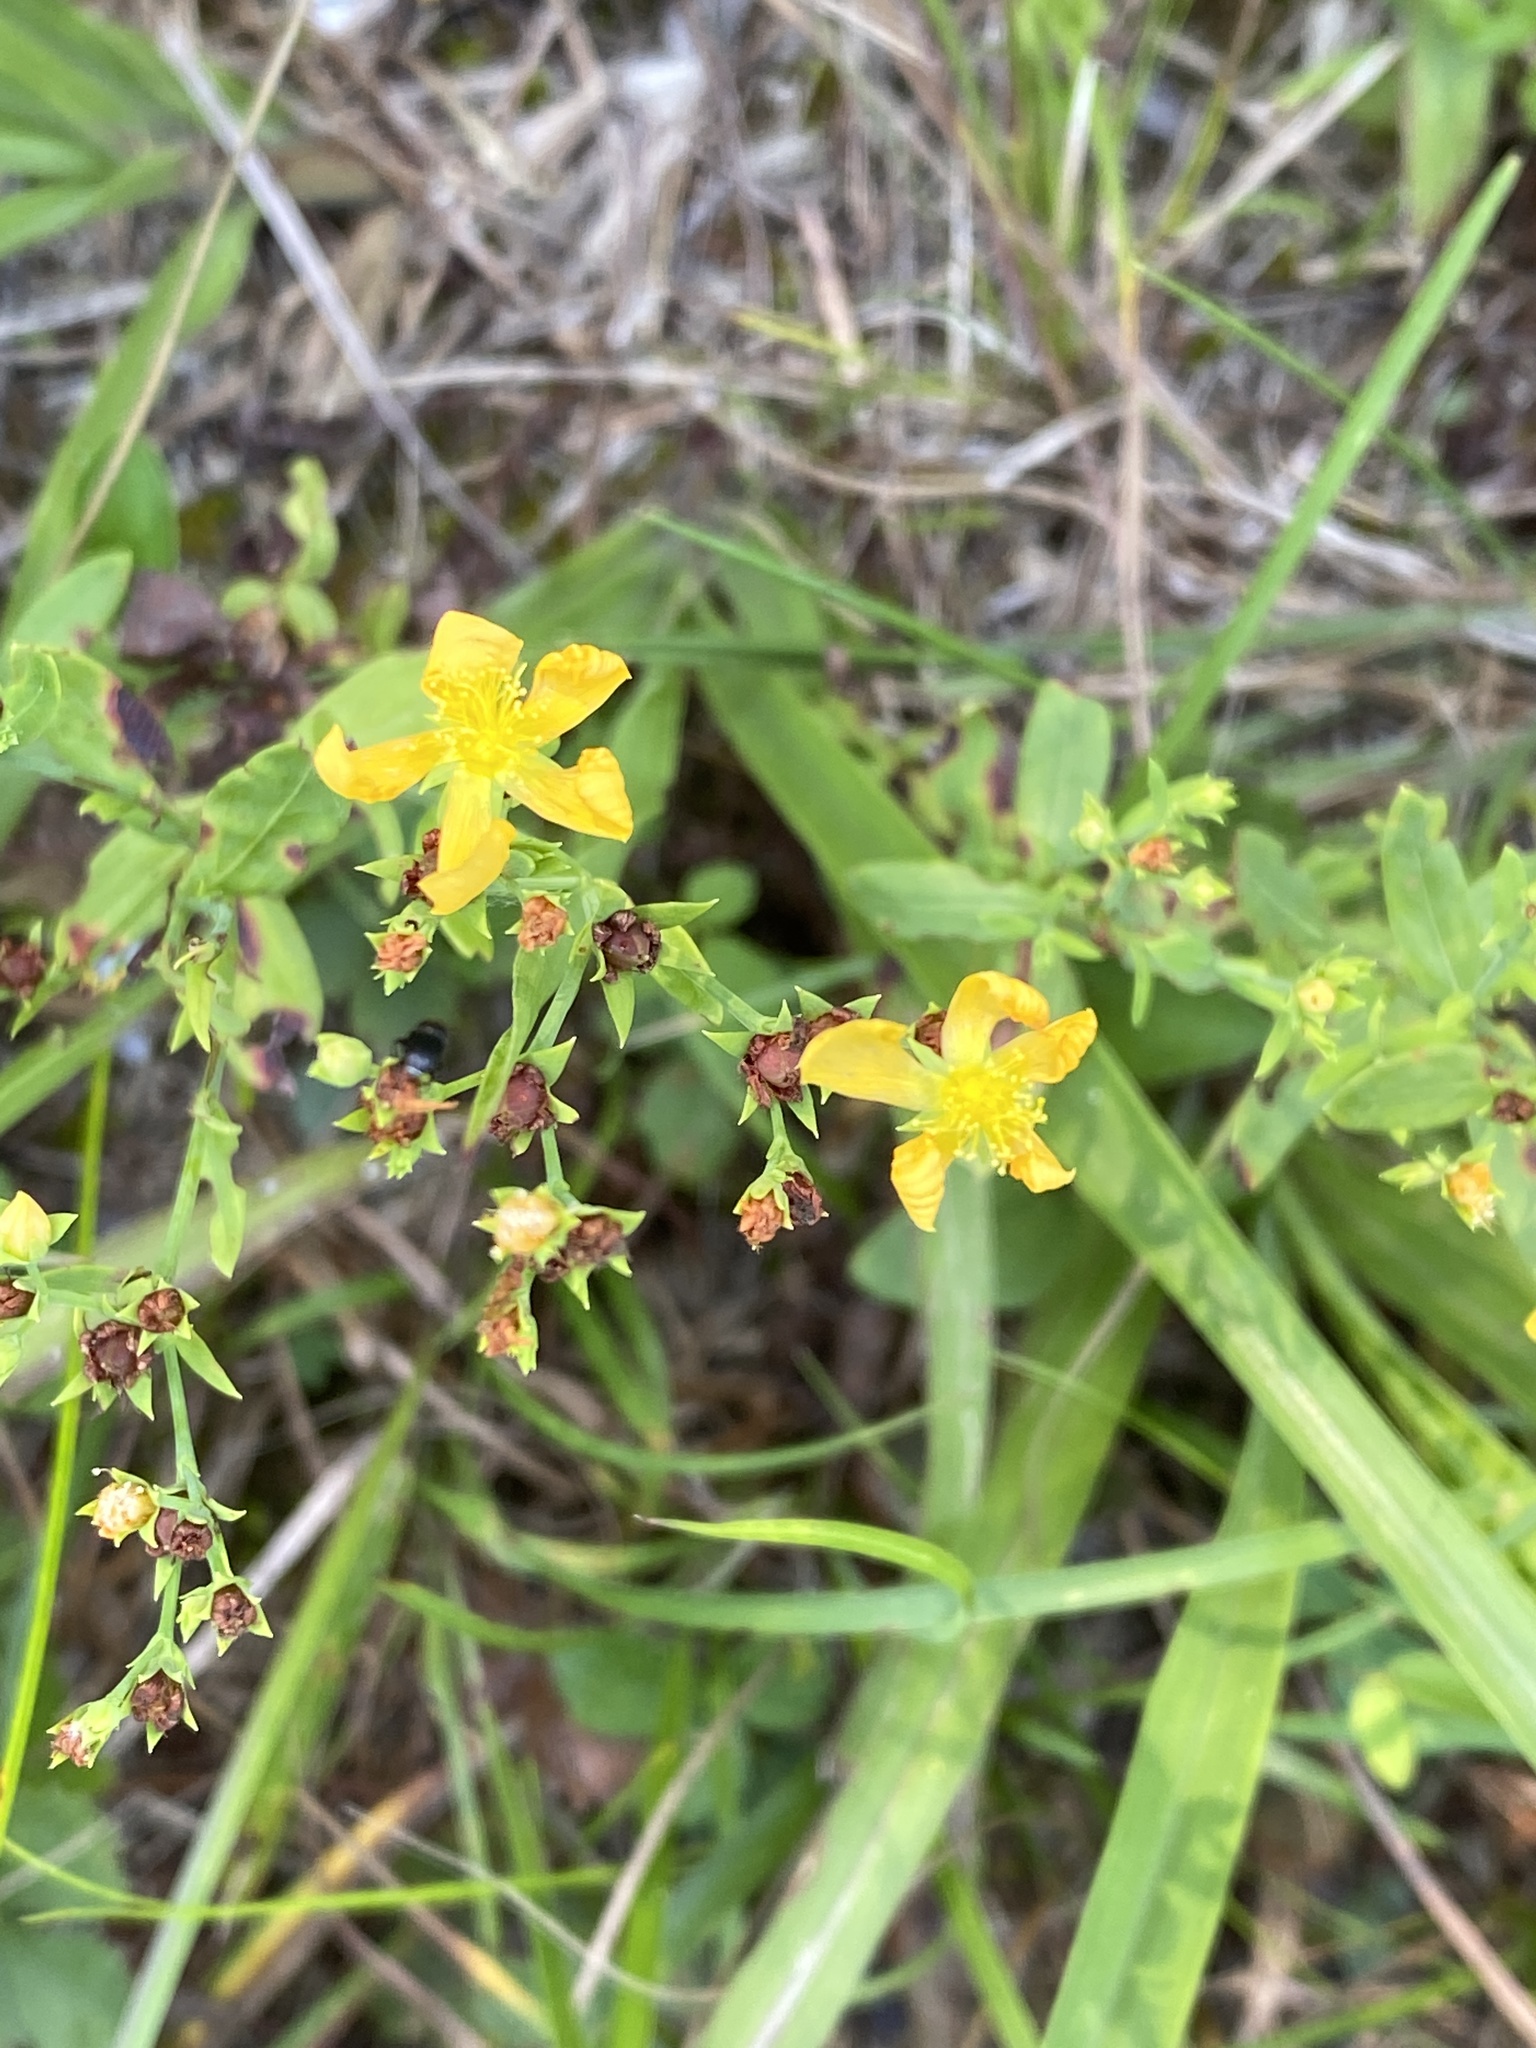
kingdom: Plantae
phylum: Tracheophyta
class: Magnoliopsida
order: Malpighiales
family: Hypericaceae
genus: Hypericum
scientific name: Hypericum virgatum
